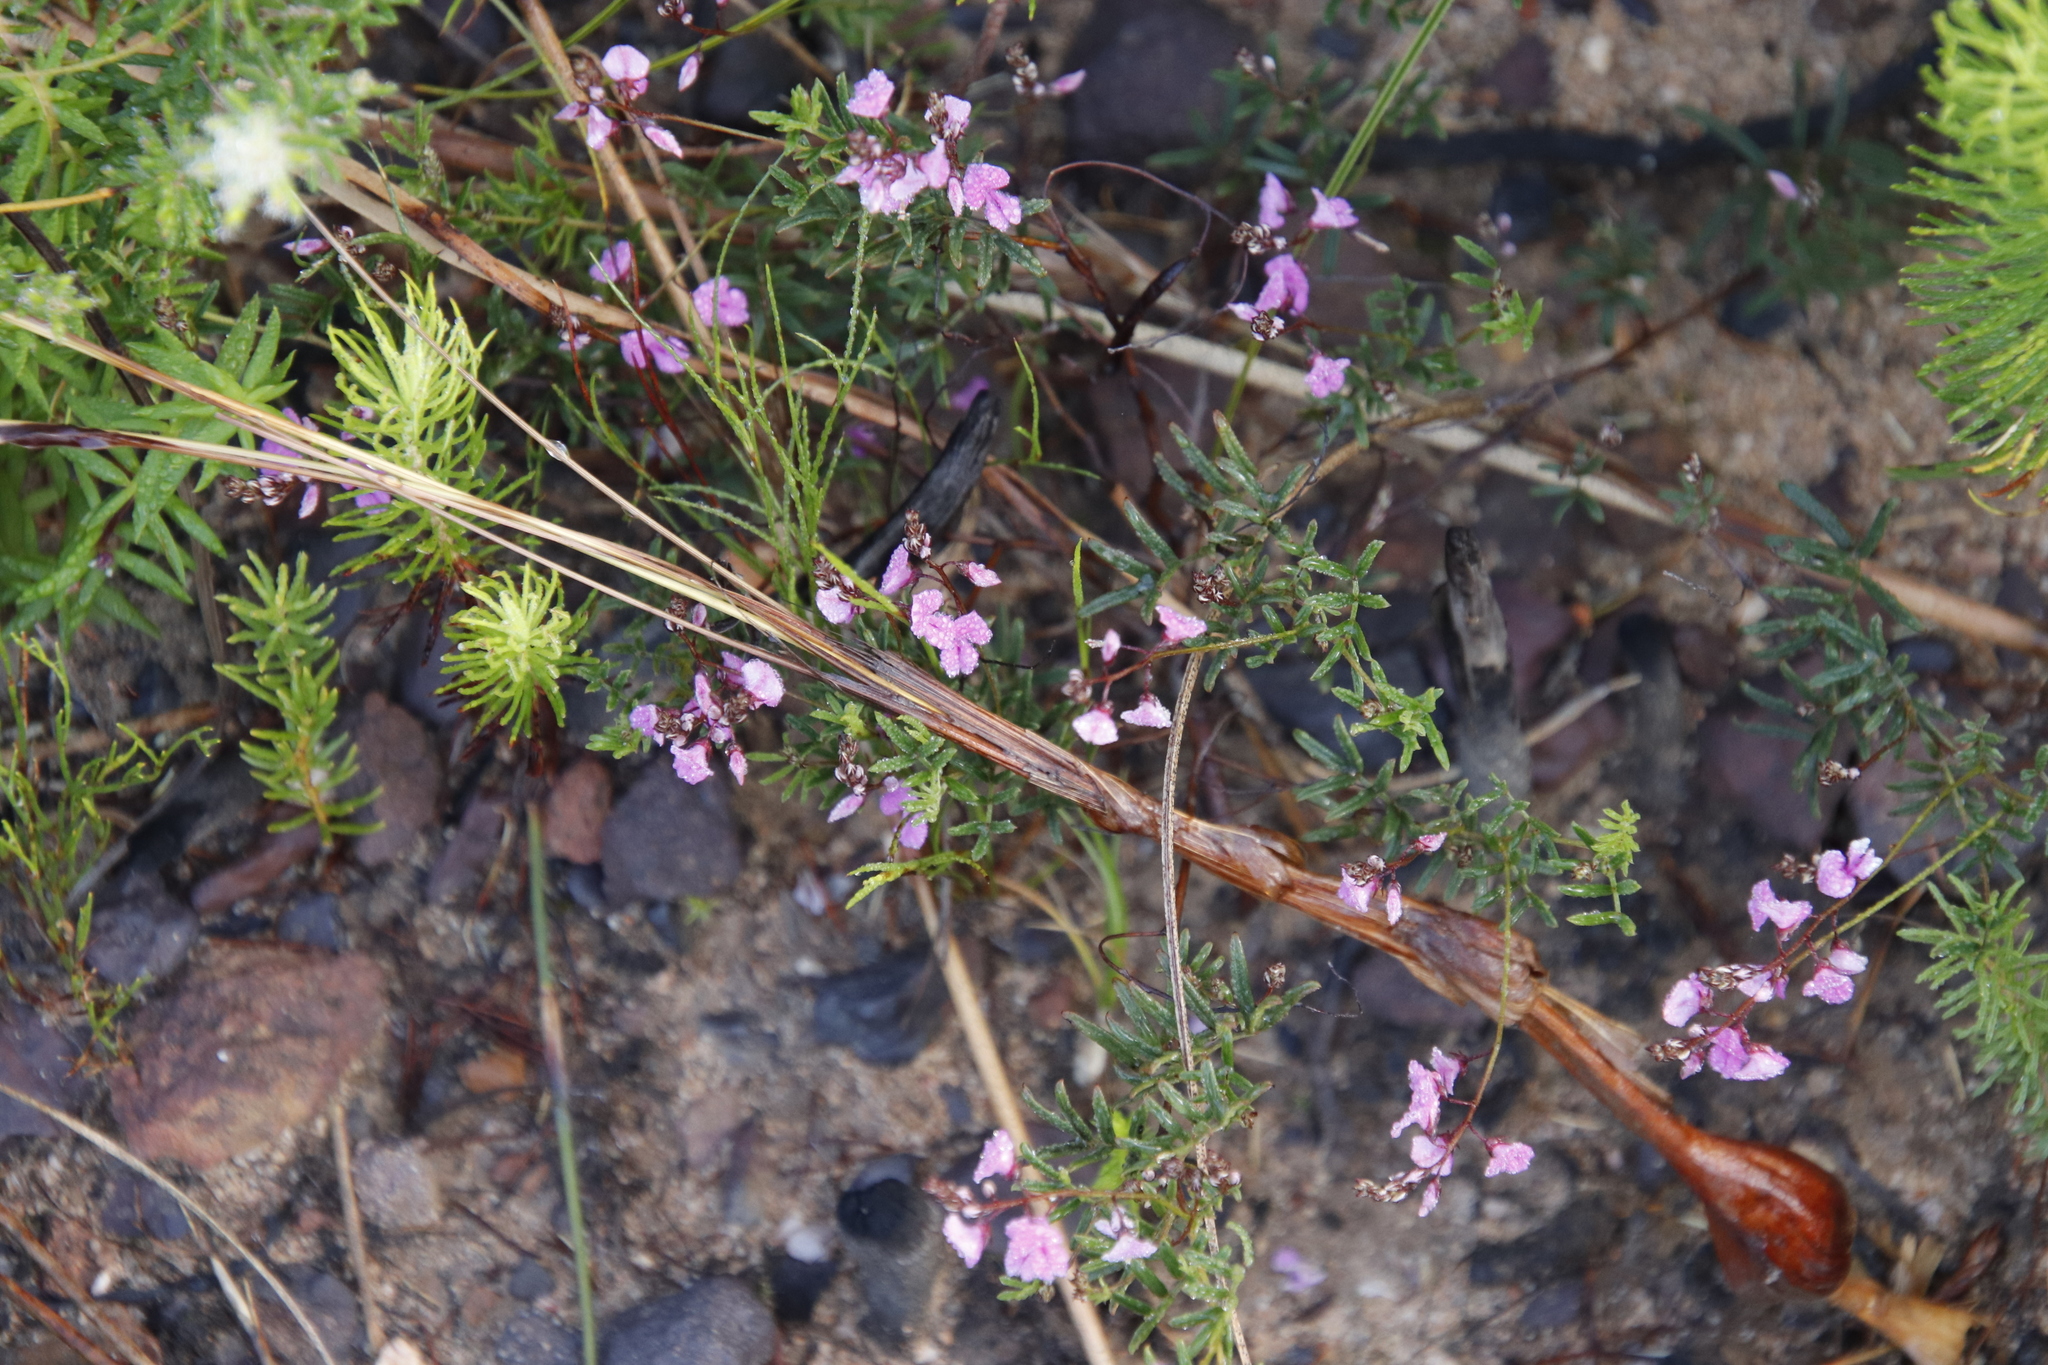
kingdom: Plantae
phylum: Tracheophyta
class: Magnoliopsida
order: Fabales
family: Fabaceae
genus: Indigofera
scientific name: Indigofera angustifolia
